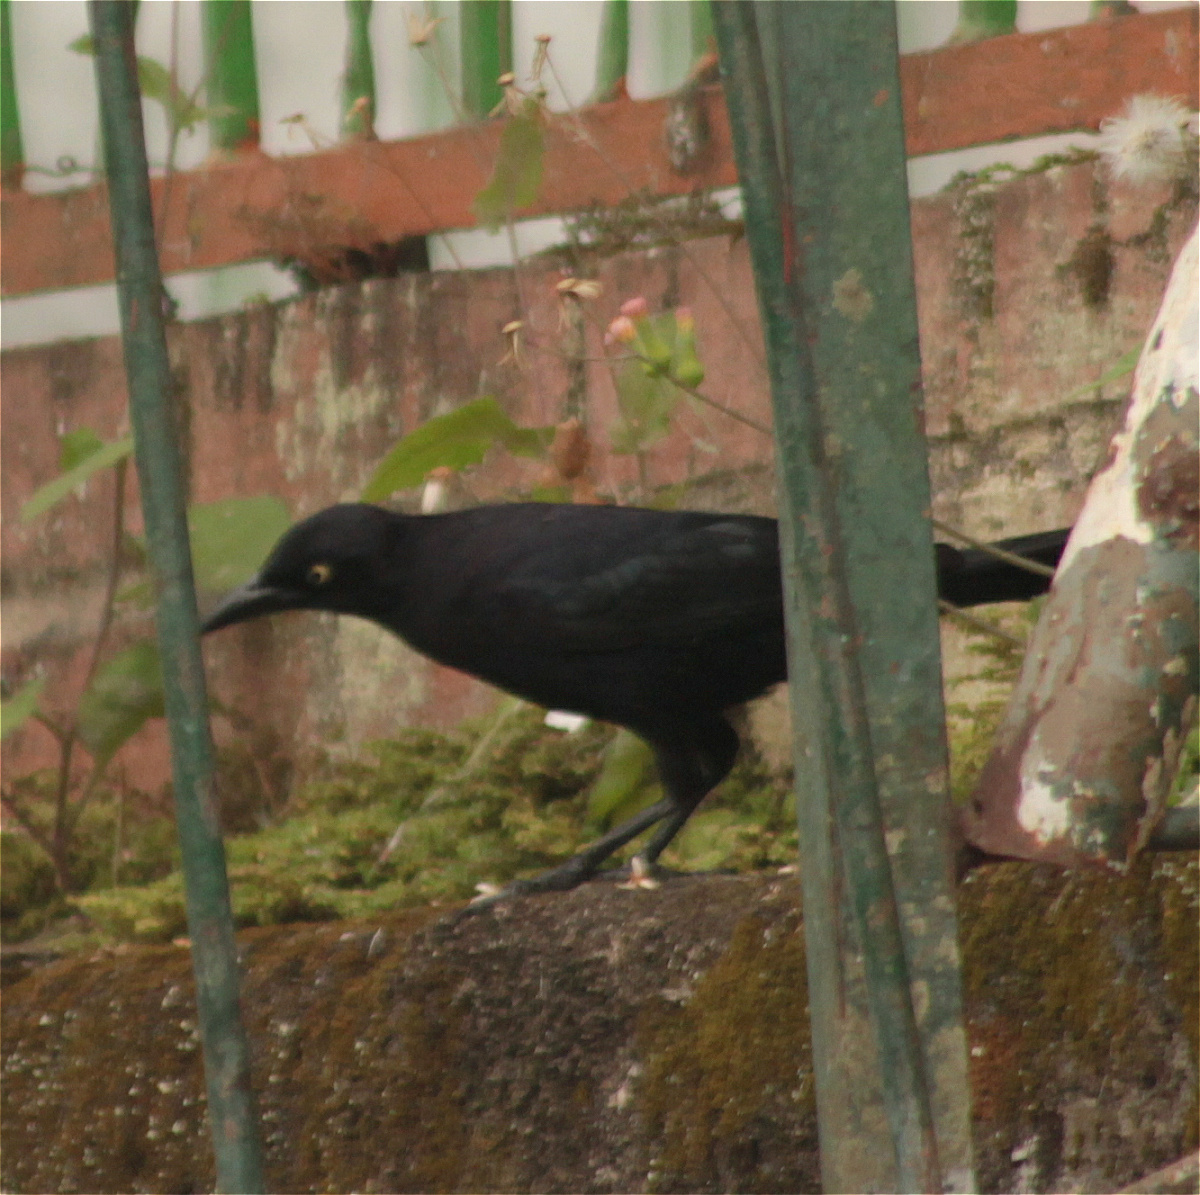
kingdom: Animalia
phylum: Chordata
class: Aves
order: Passeriformes
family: Icteridae
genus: Quiscalus
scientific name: Quiscalus lugubris
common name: Carib grackle
